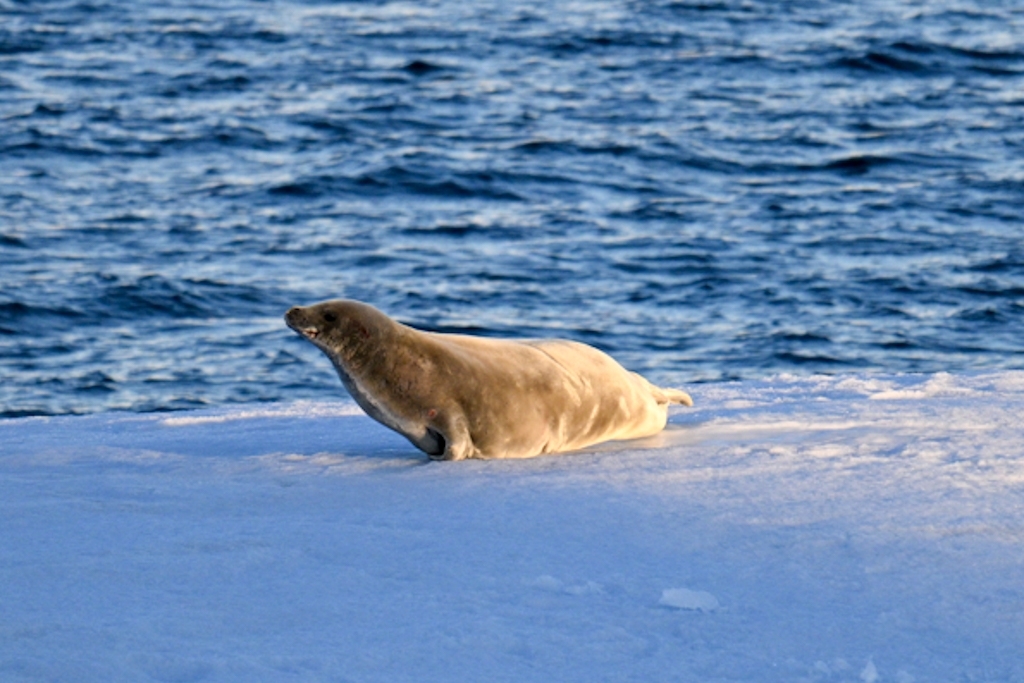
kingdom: Animalia
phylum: Chordata
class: Mammalia
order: Carnivora
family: Phocidae
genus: Lobodon
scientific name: Lobodon carcinophaga
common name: Crabeater seal
